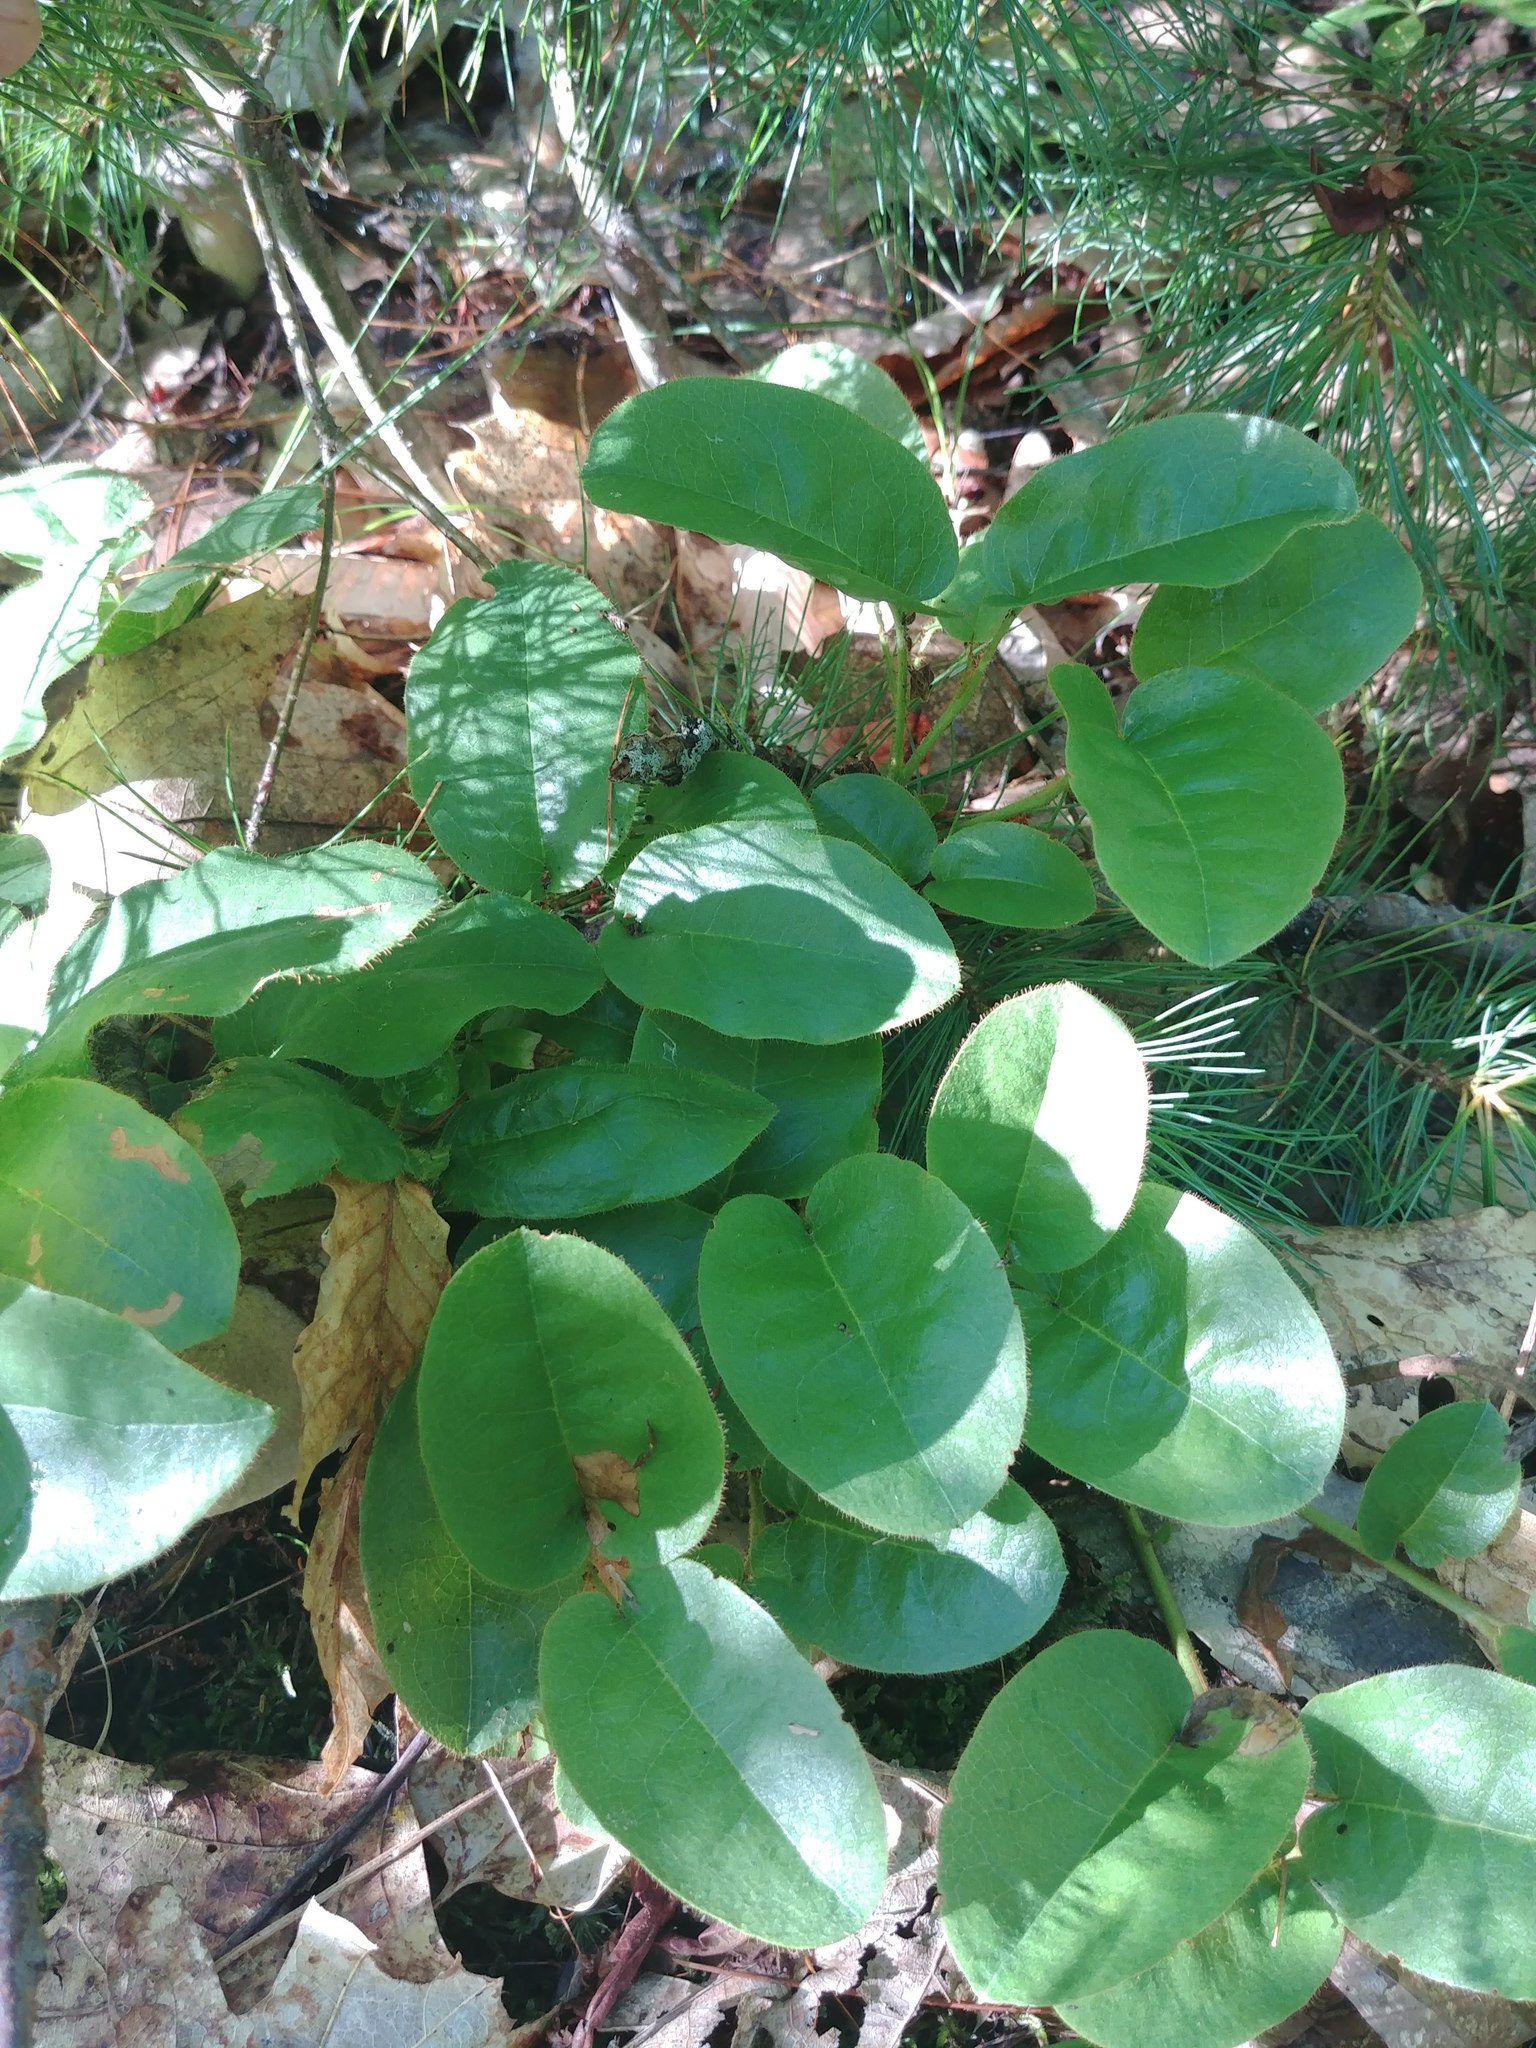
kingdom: Plantae
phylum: Tracheophyta
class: Magnoliopsida
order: Ericales
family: Ericaceae
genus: Epigaea
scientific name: Epigaea repens
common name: Gravelroot
